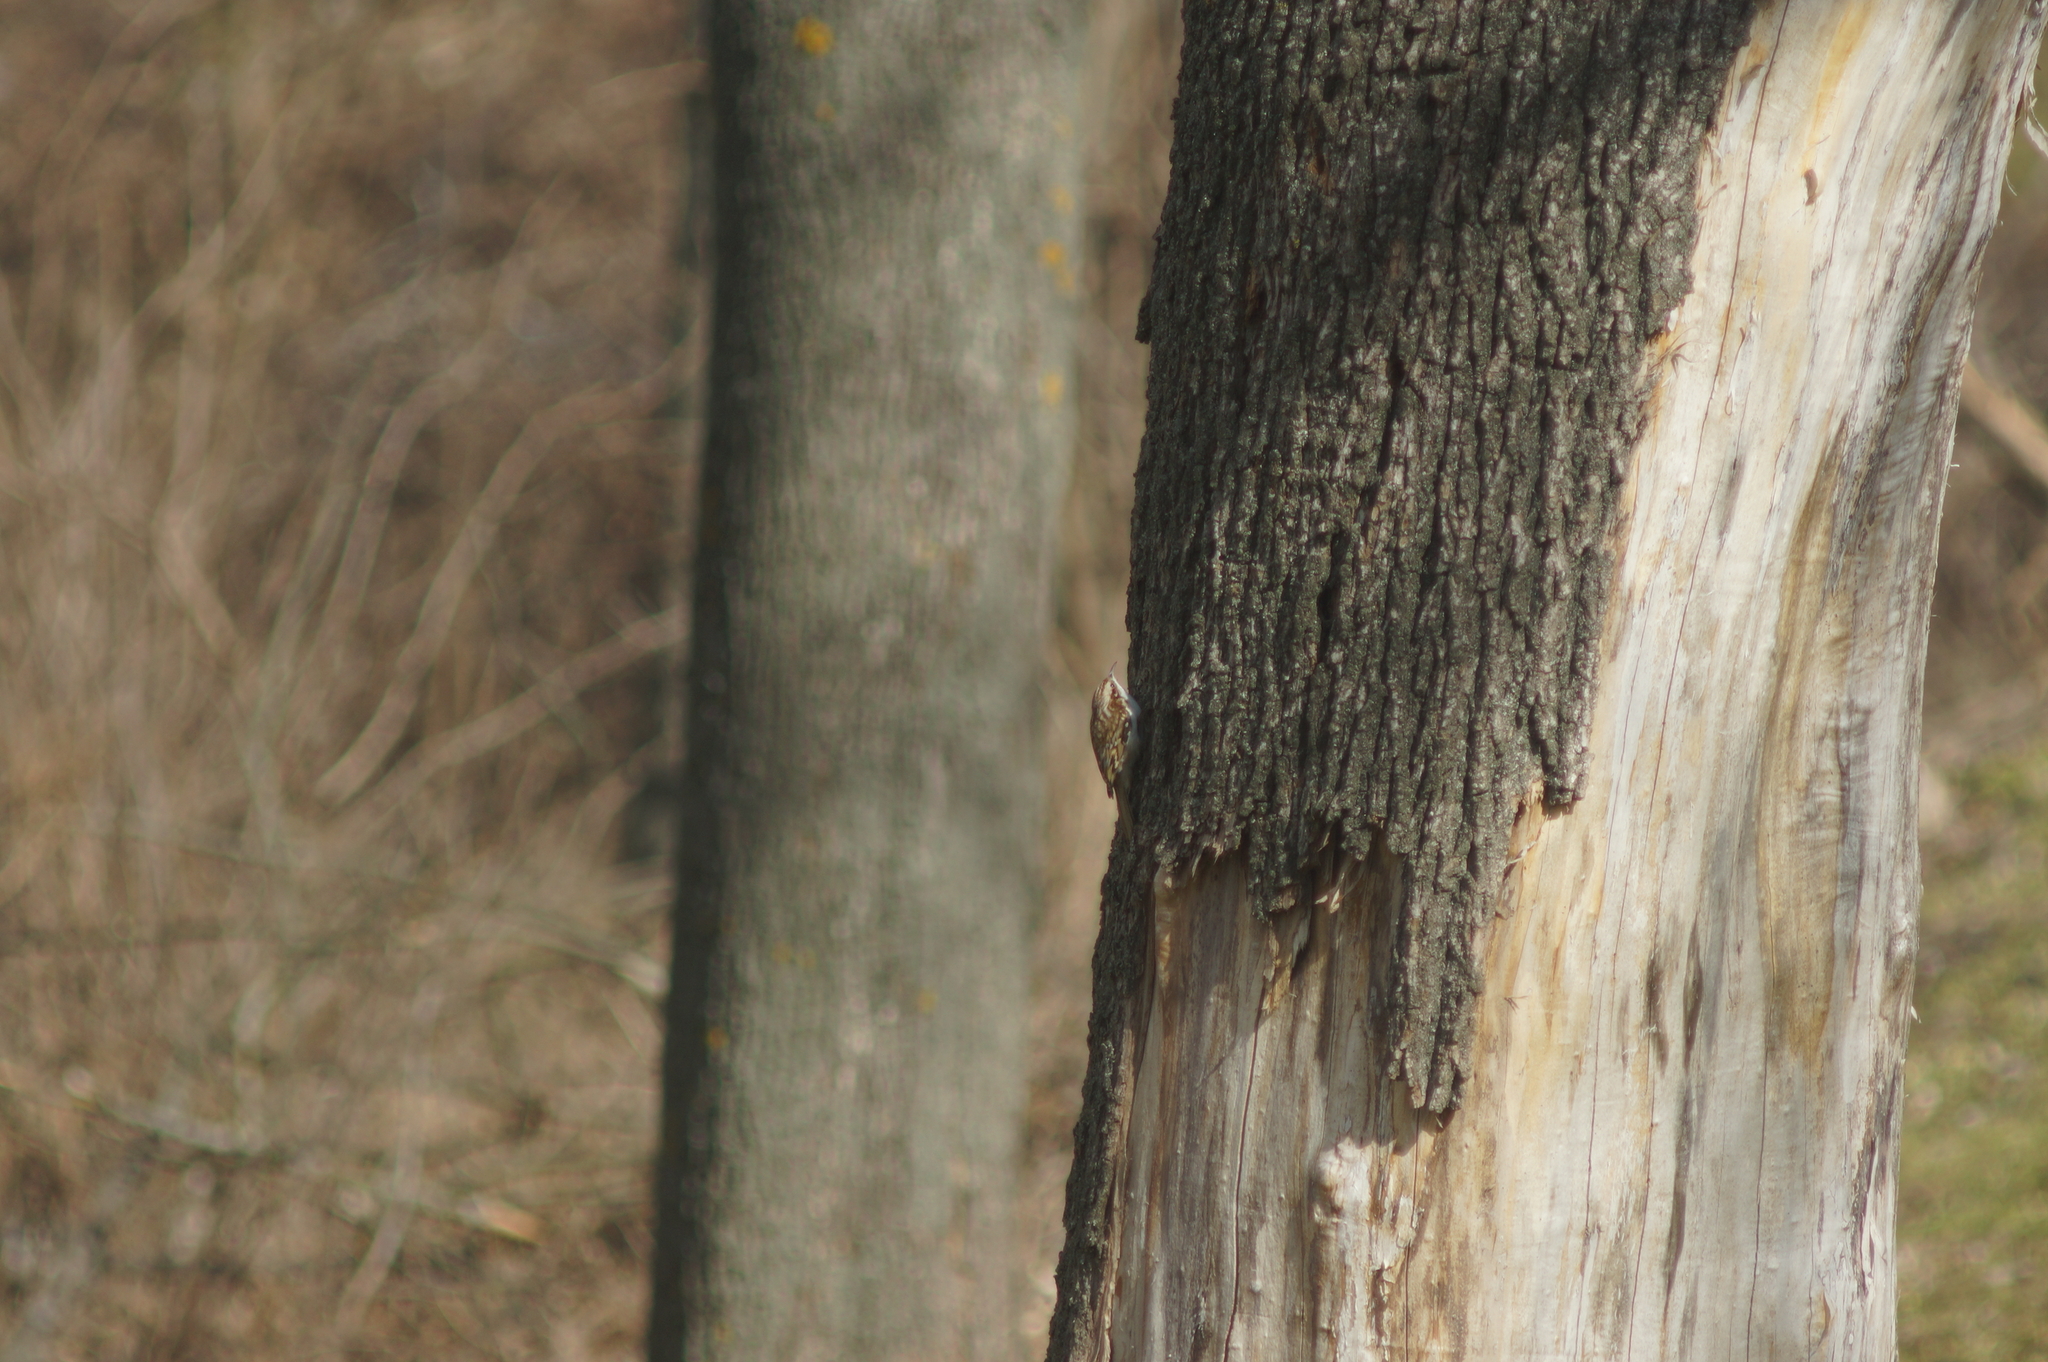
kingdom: Animalia
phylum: Chordata
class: Aves
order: Passeriformes
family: Certhiidae
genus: Certhia
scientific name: Certhia familiaris
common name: Eurasian treecreeper
